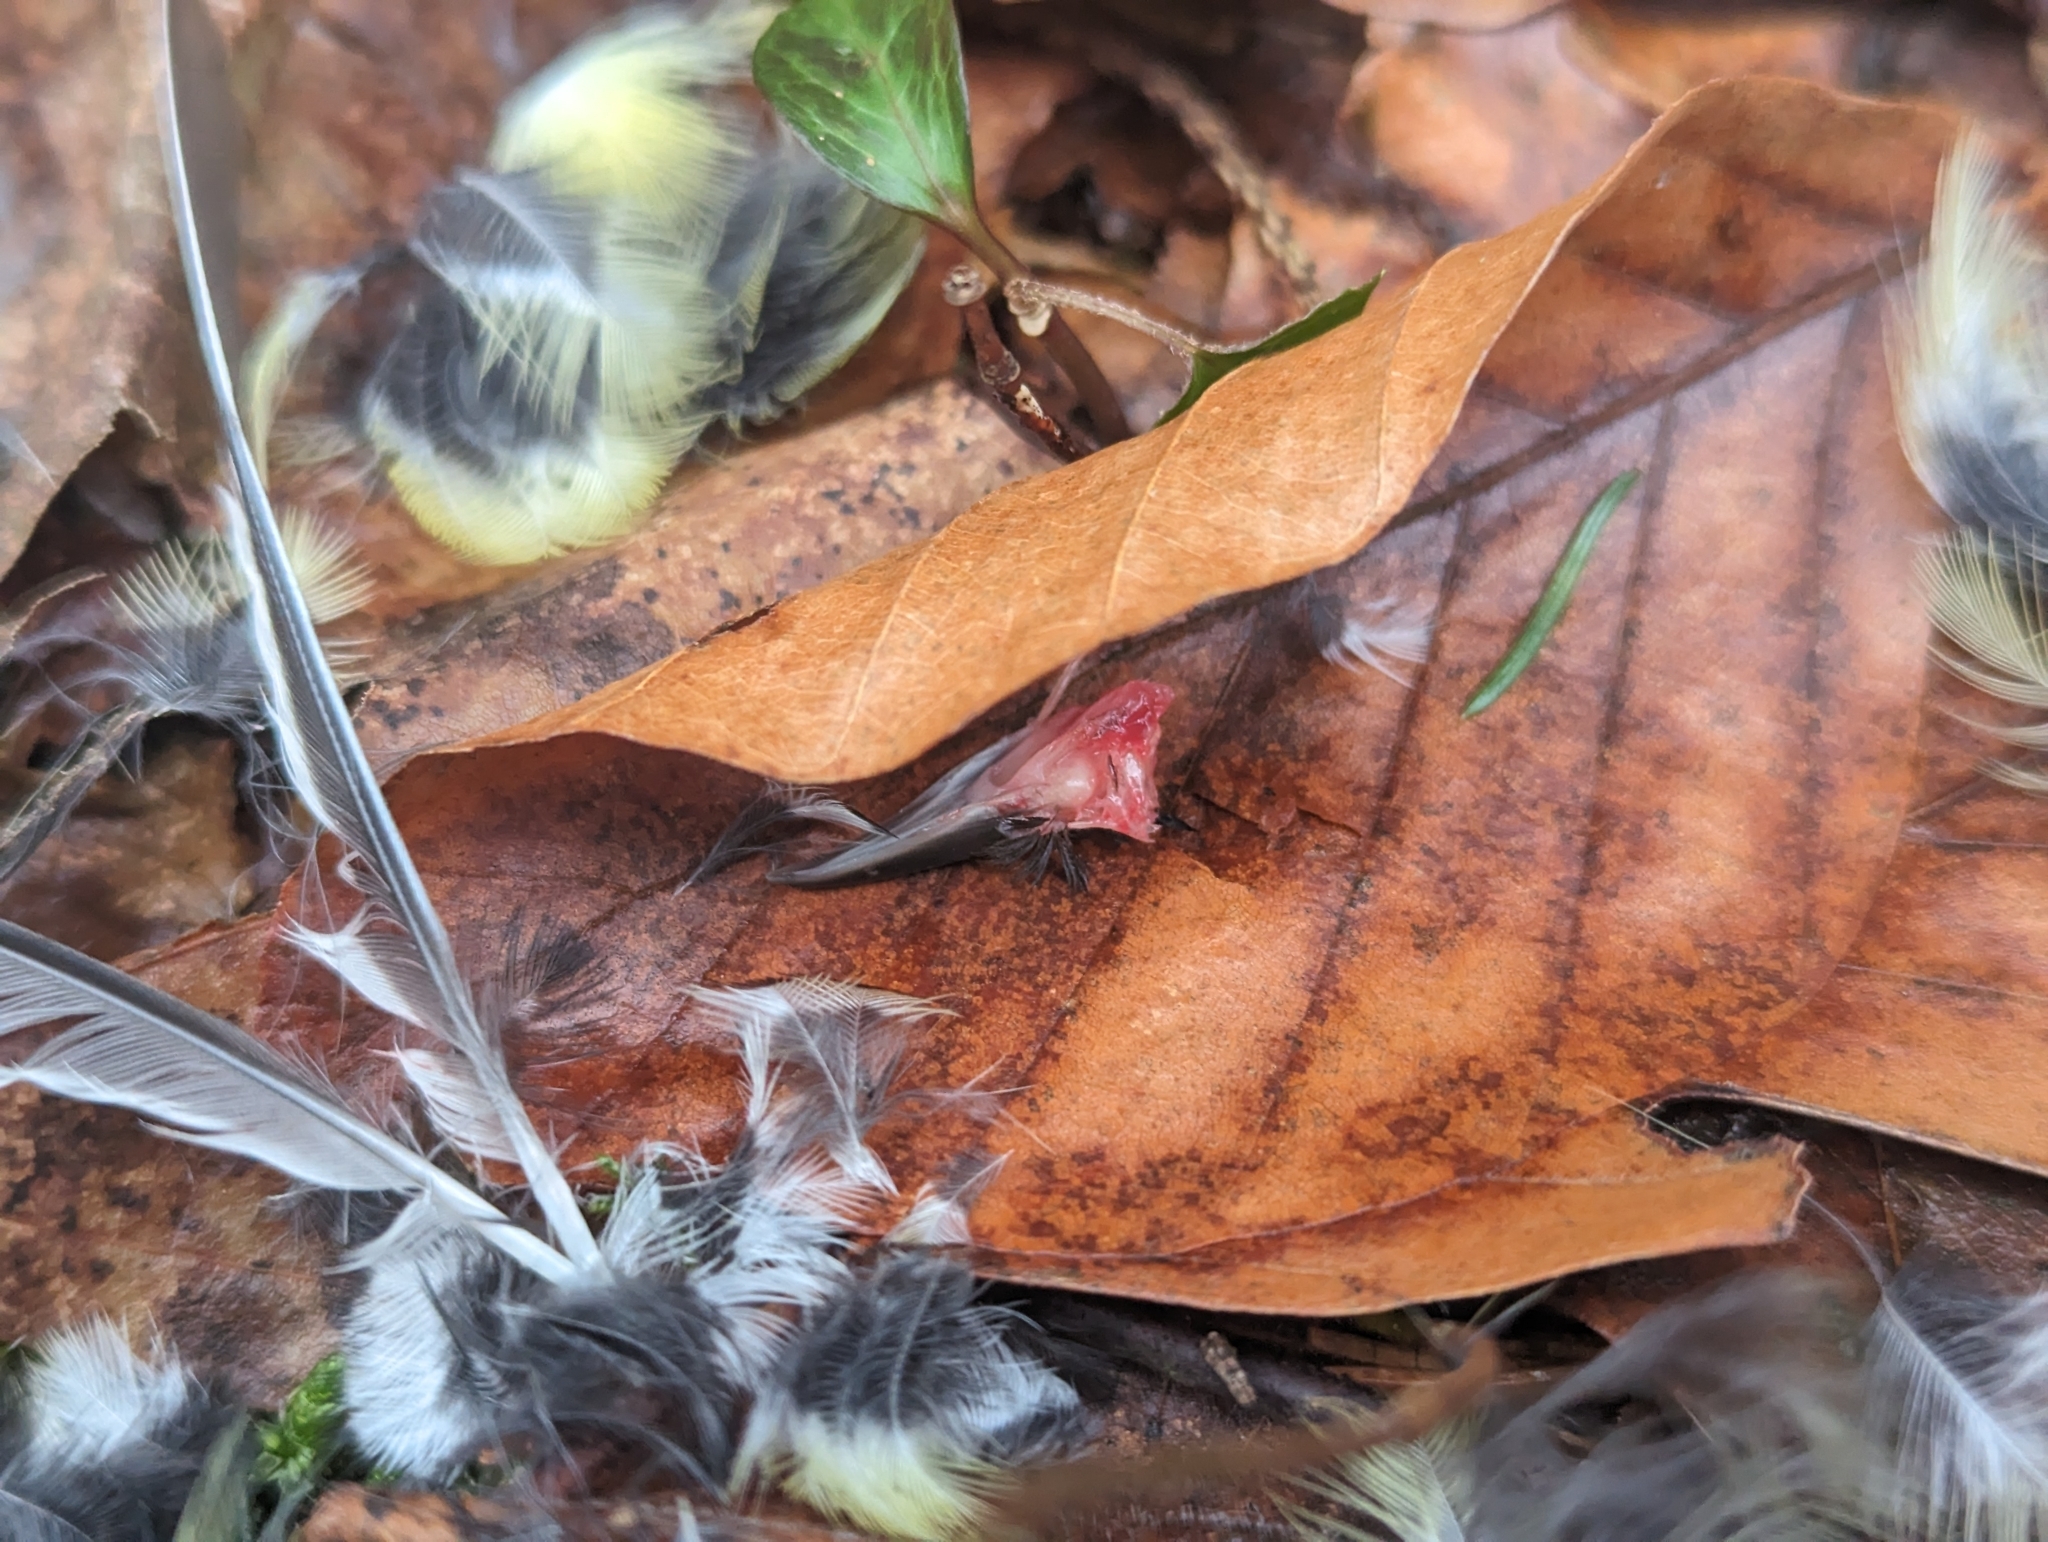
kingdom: Animalia
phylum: Chordata
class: Aves
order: Passeriformes
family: Paridae
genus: Parus
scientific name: Parus major
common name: Great tit
